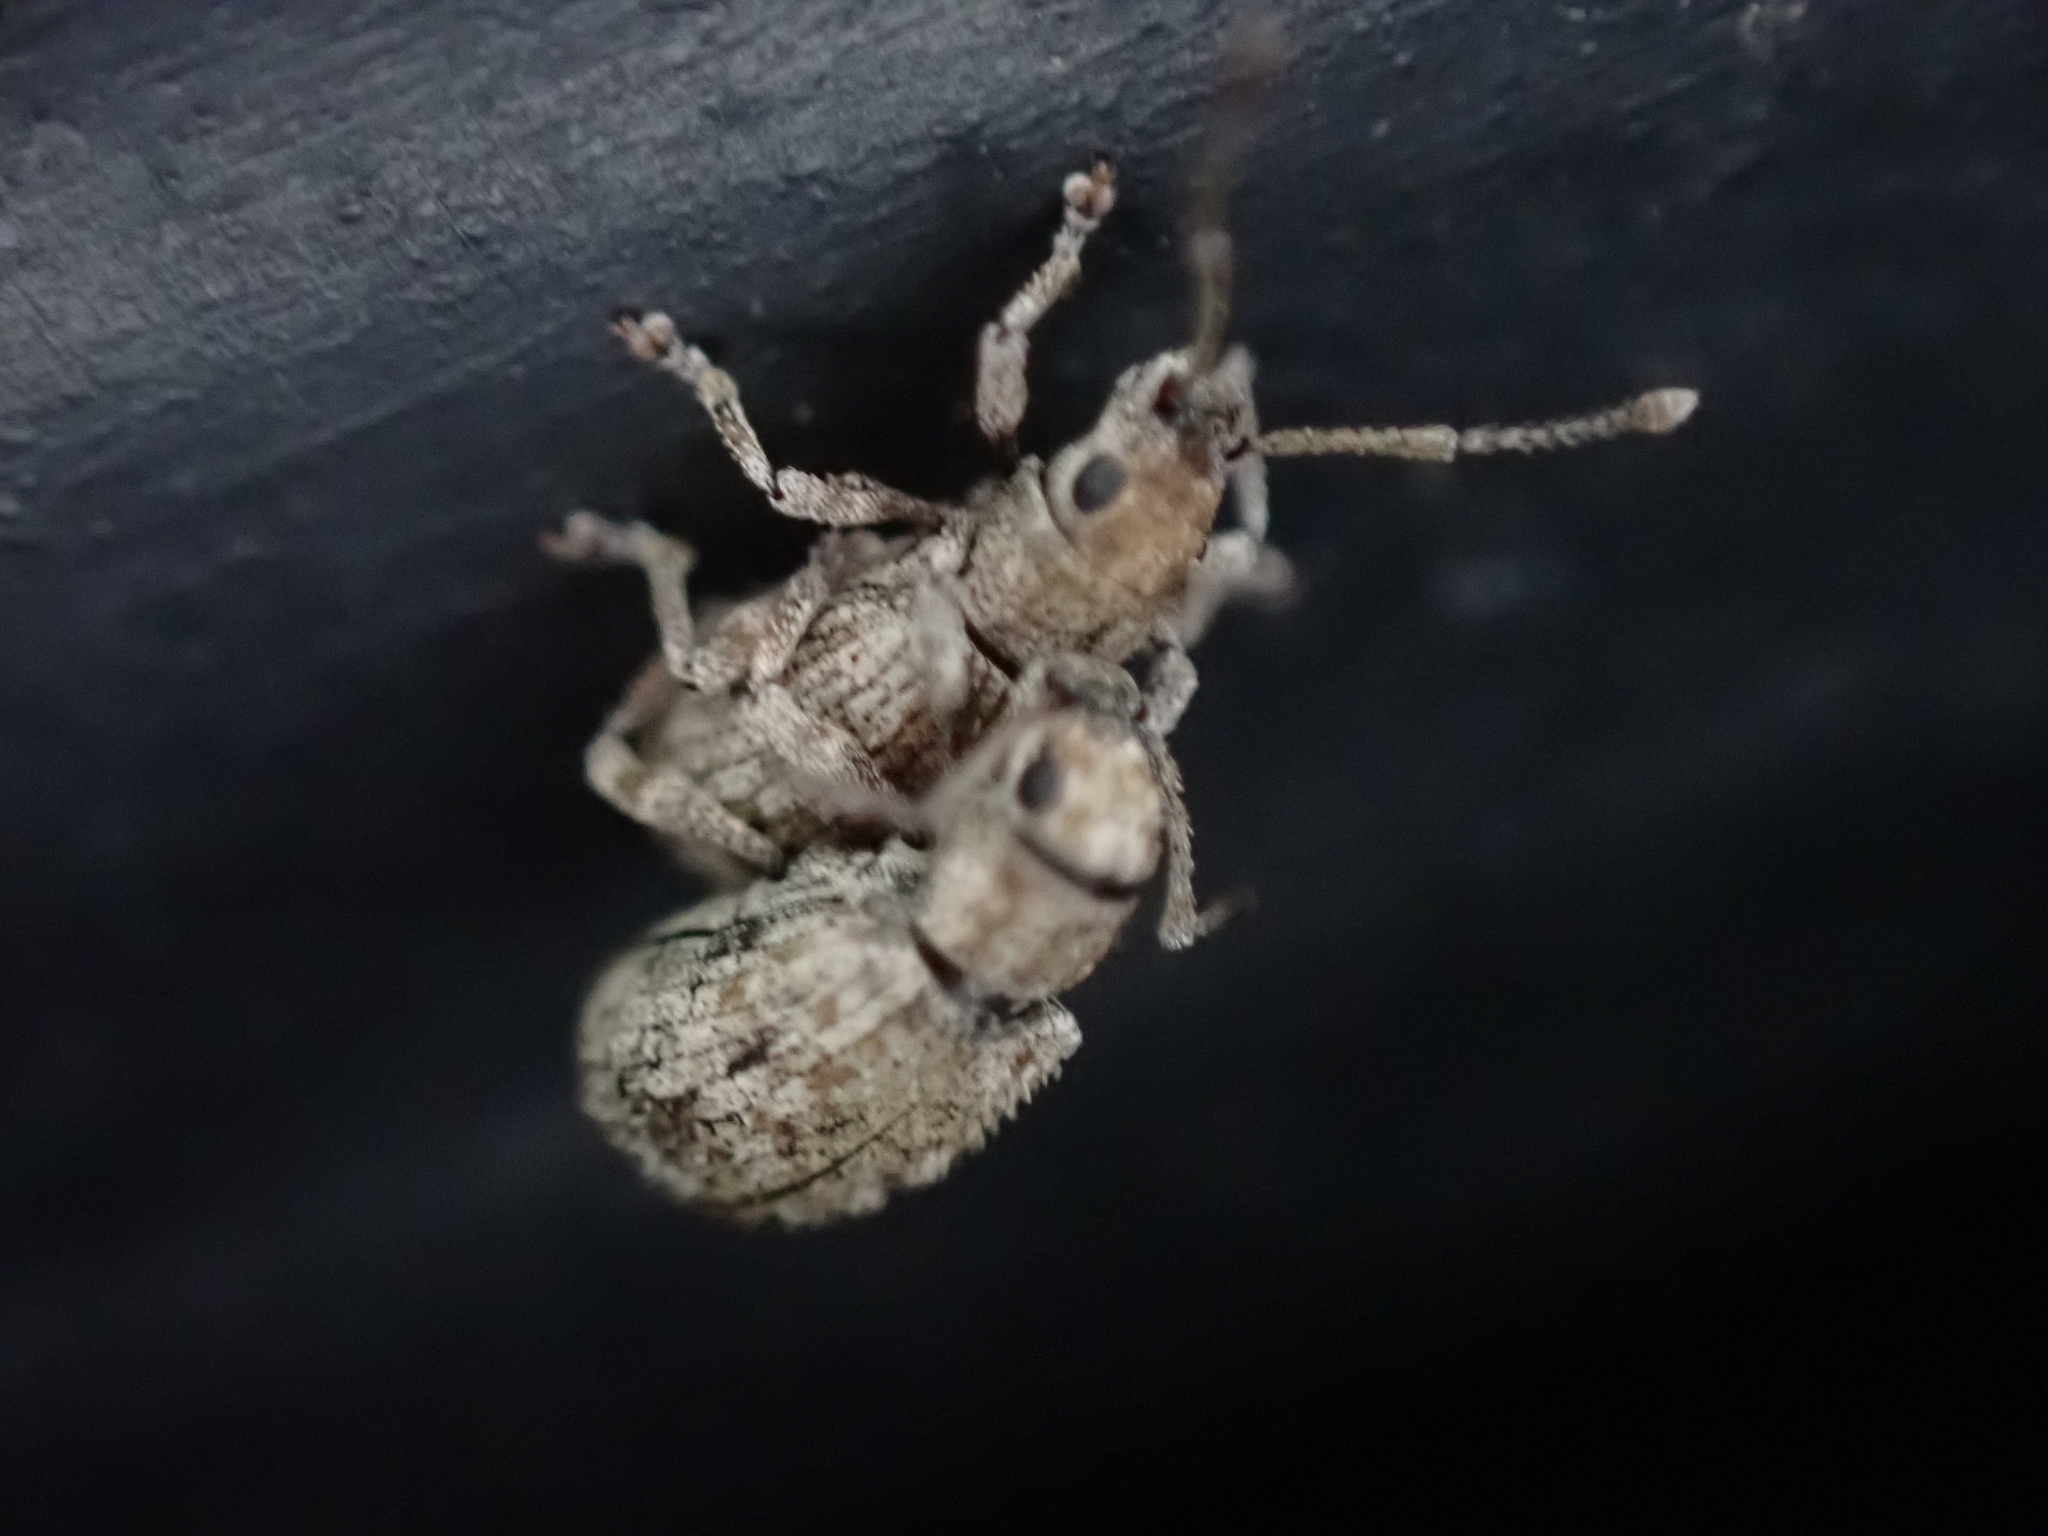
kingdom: Animalia
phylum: Arthropoda
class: Insecta
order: Coleoptera
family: Curculionidae
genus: Pseudoedophrys
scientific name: Pseudoedophrys hilleri
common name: Weevil
